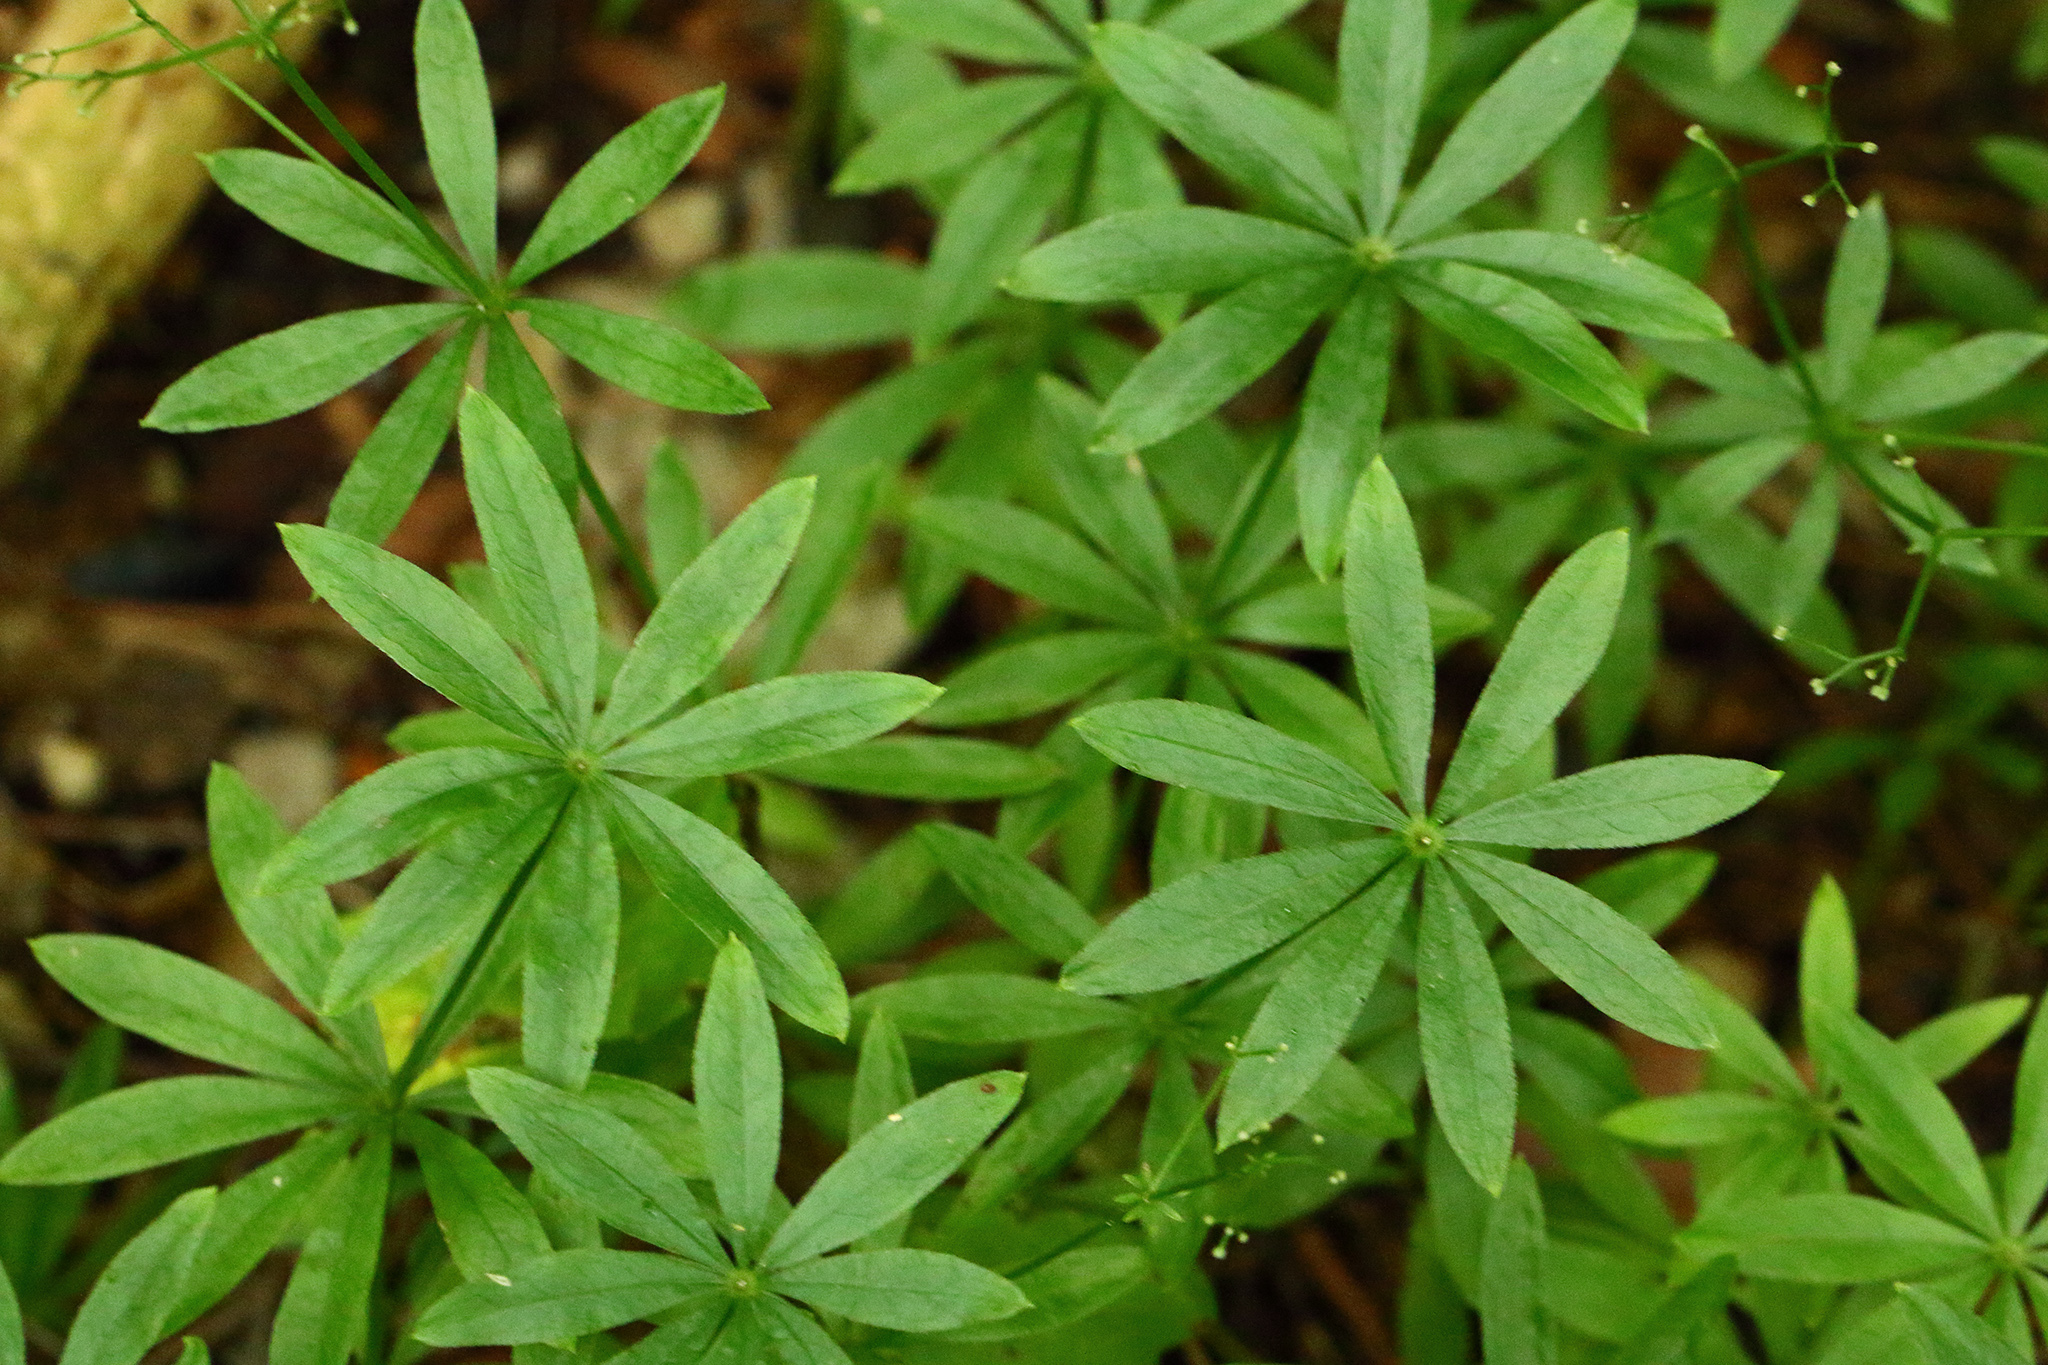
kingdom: Plantae
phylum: Tracheophyta
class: Magnoliopsida
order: Gentianales
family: Rubiaceae
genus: Galium
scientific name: Galium odoratum
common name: Sweet woodruff
